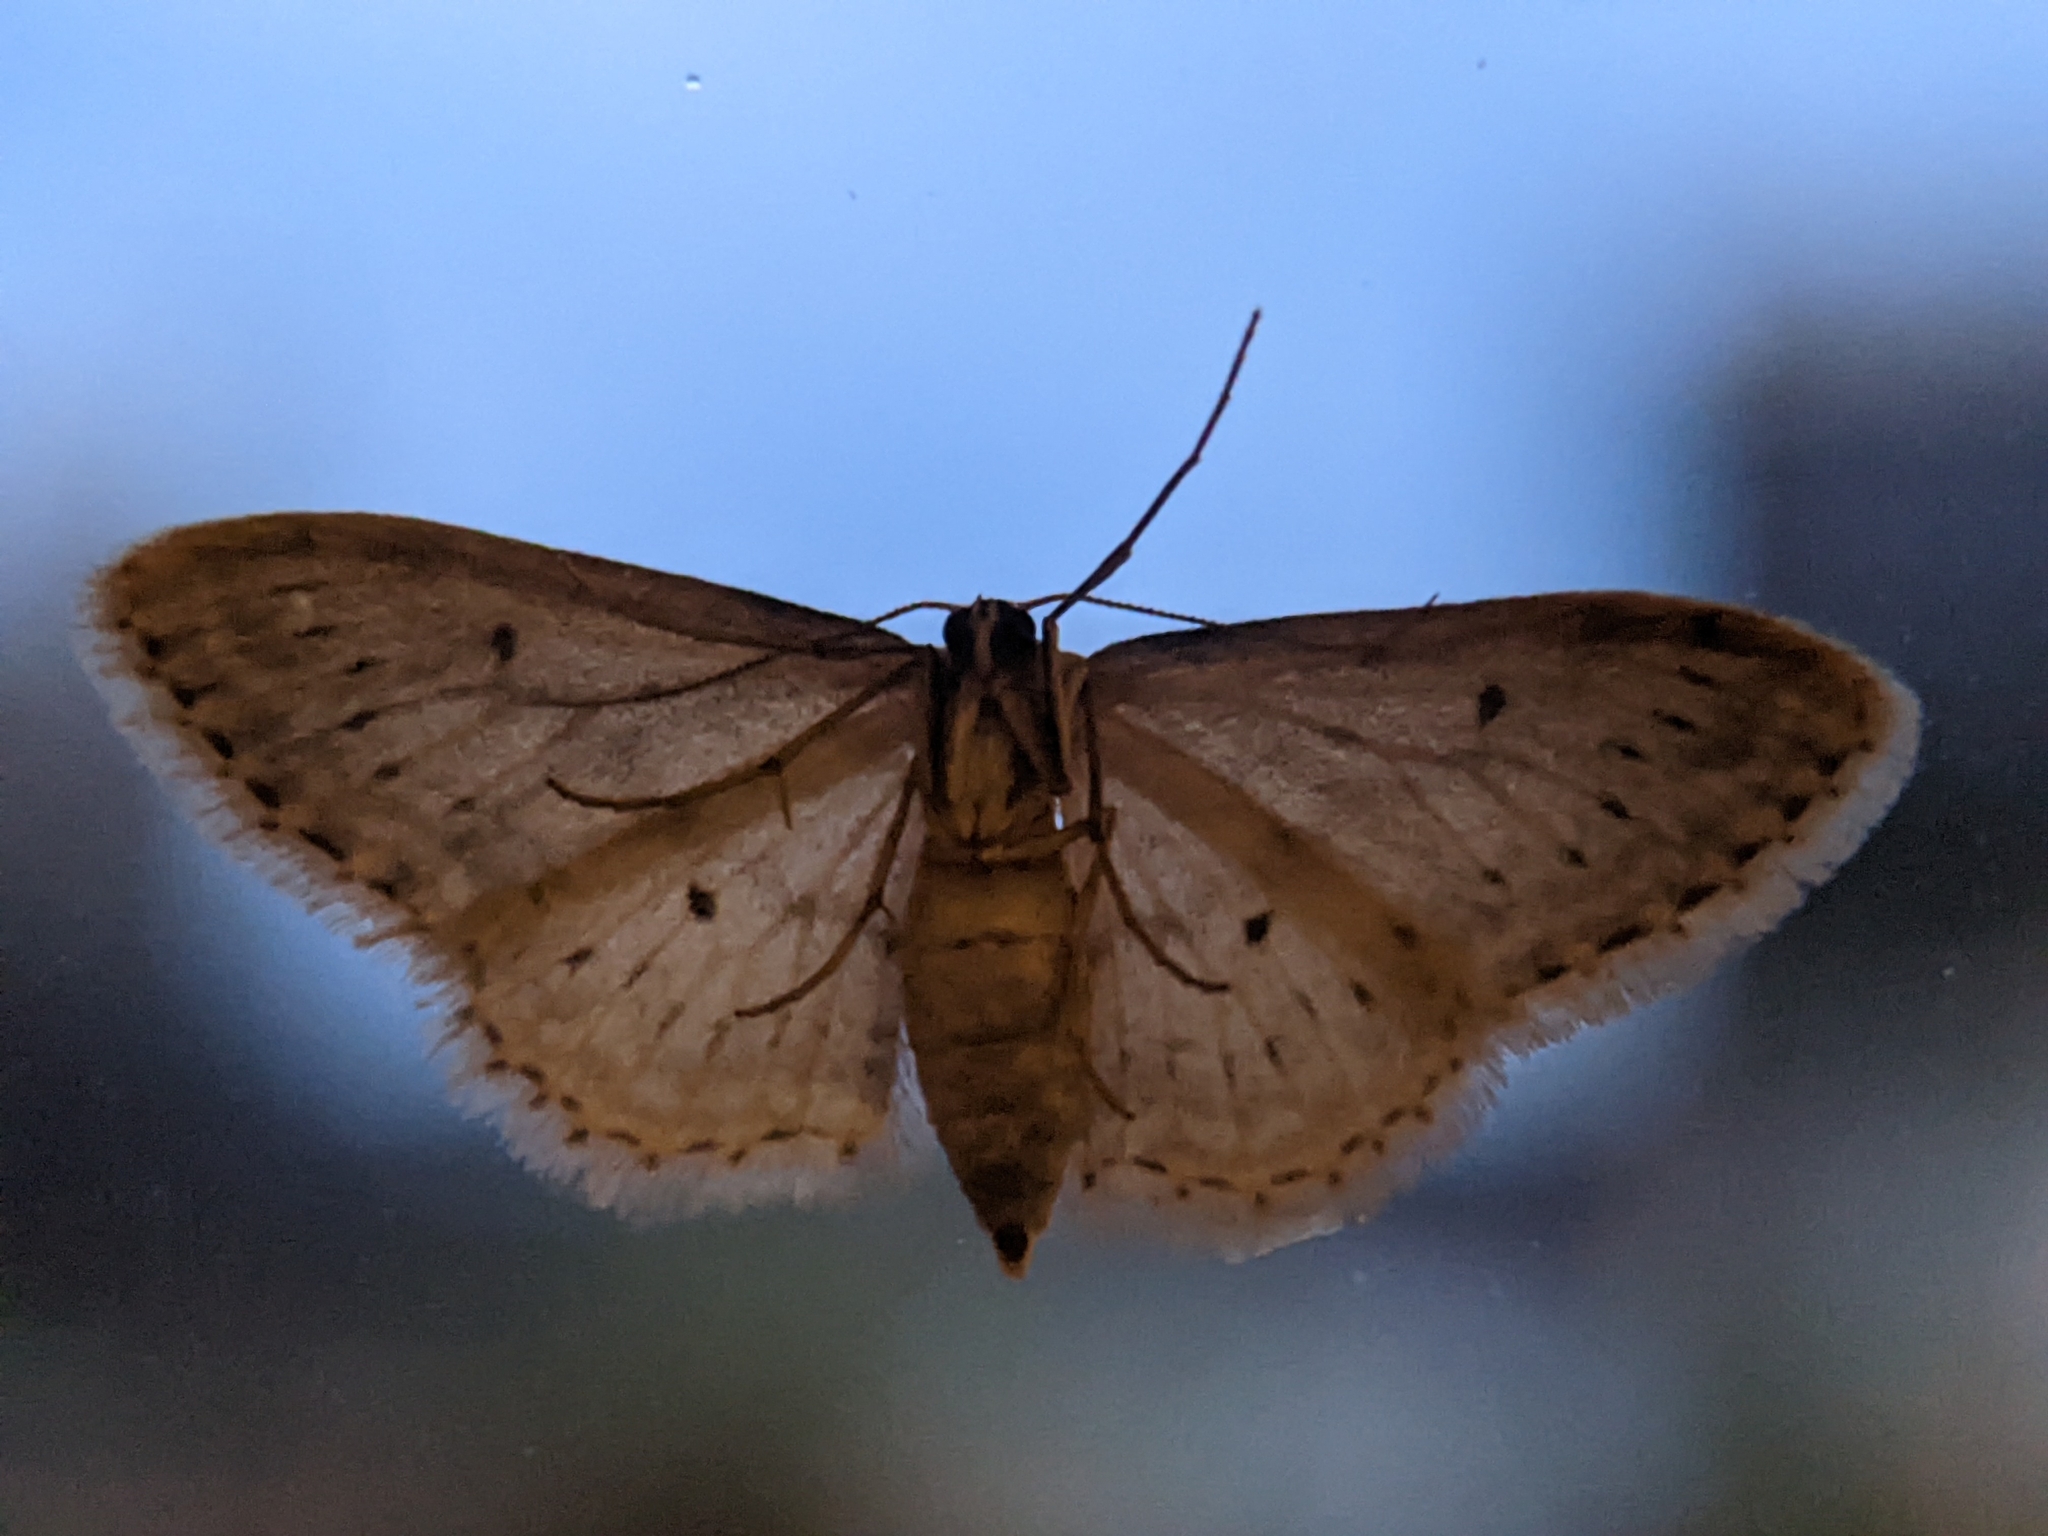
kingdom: Animalia
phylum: Arthropoda
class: Insecta
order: Lepidoptera
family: Geometridae
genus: Idaea
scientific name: Idaea seriata
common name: Small dusty wave
